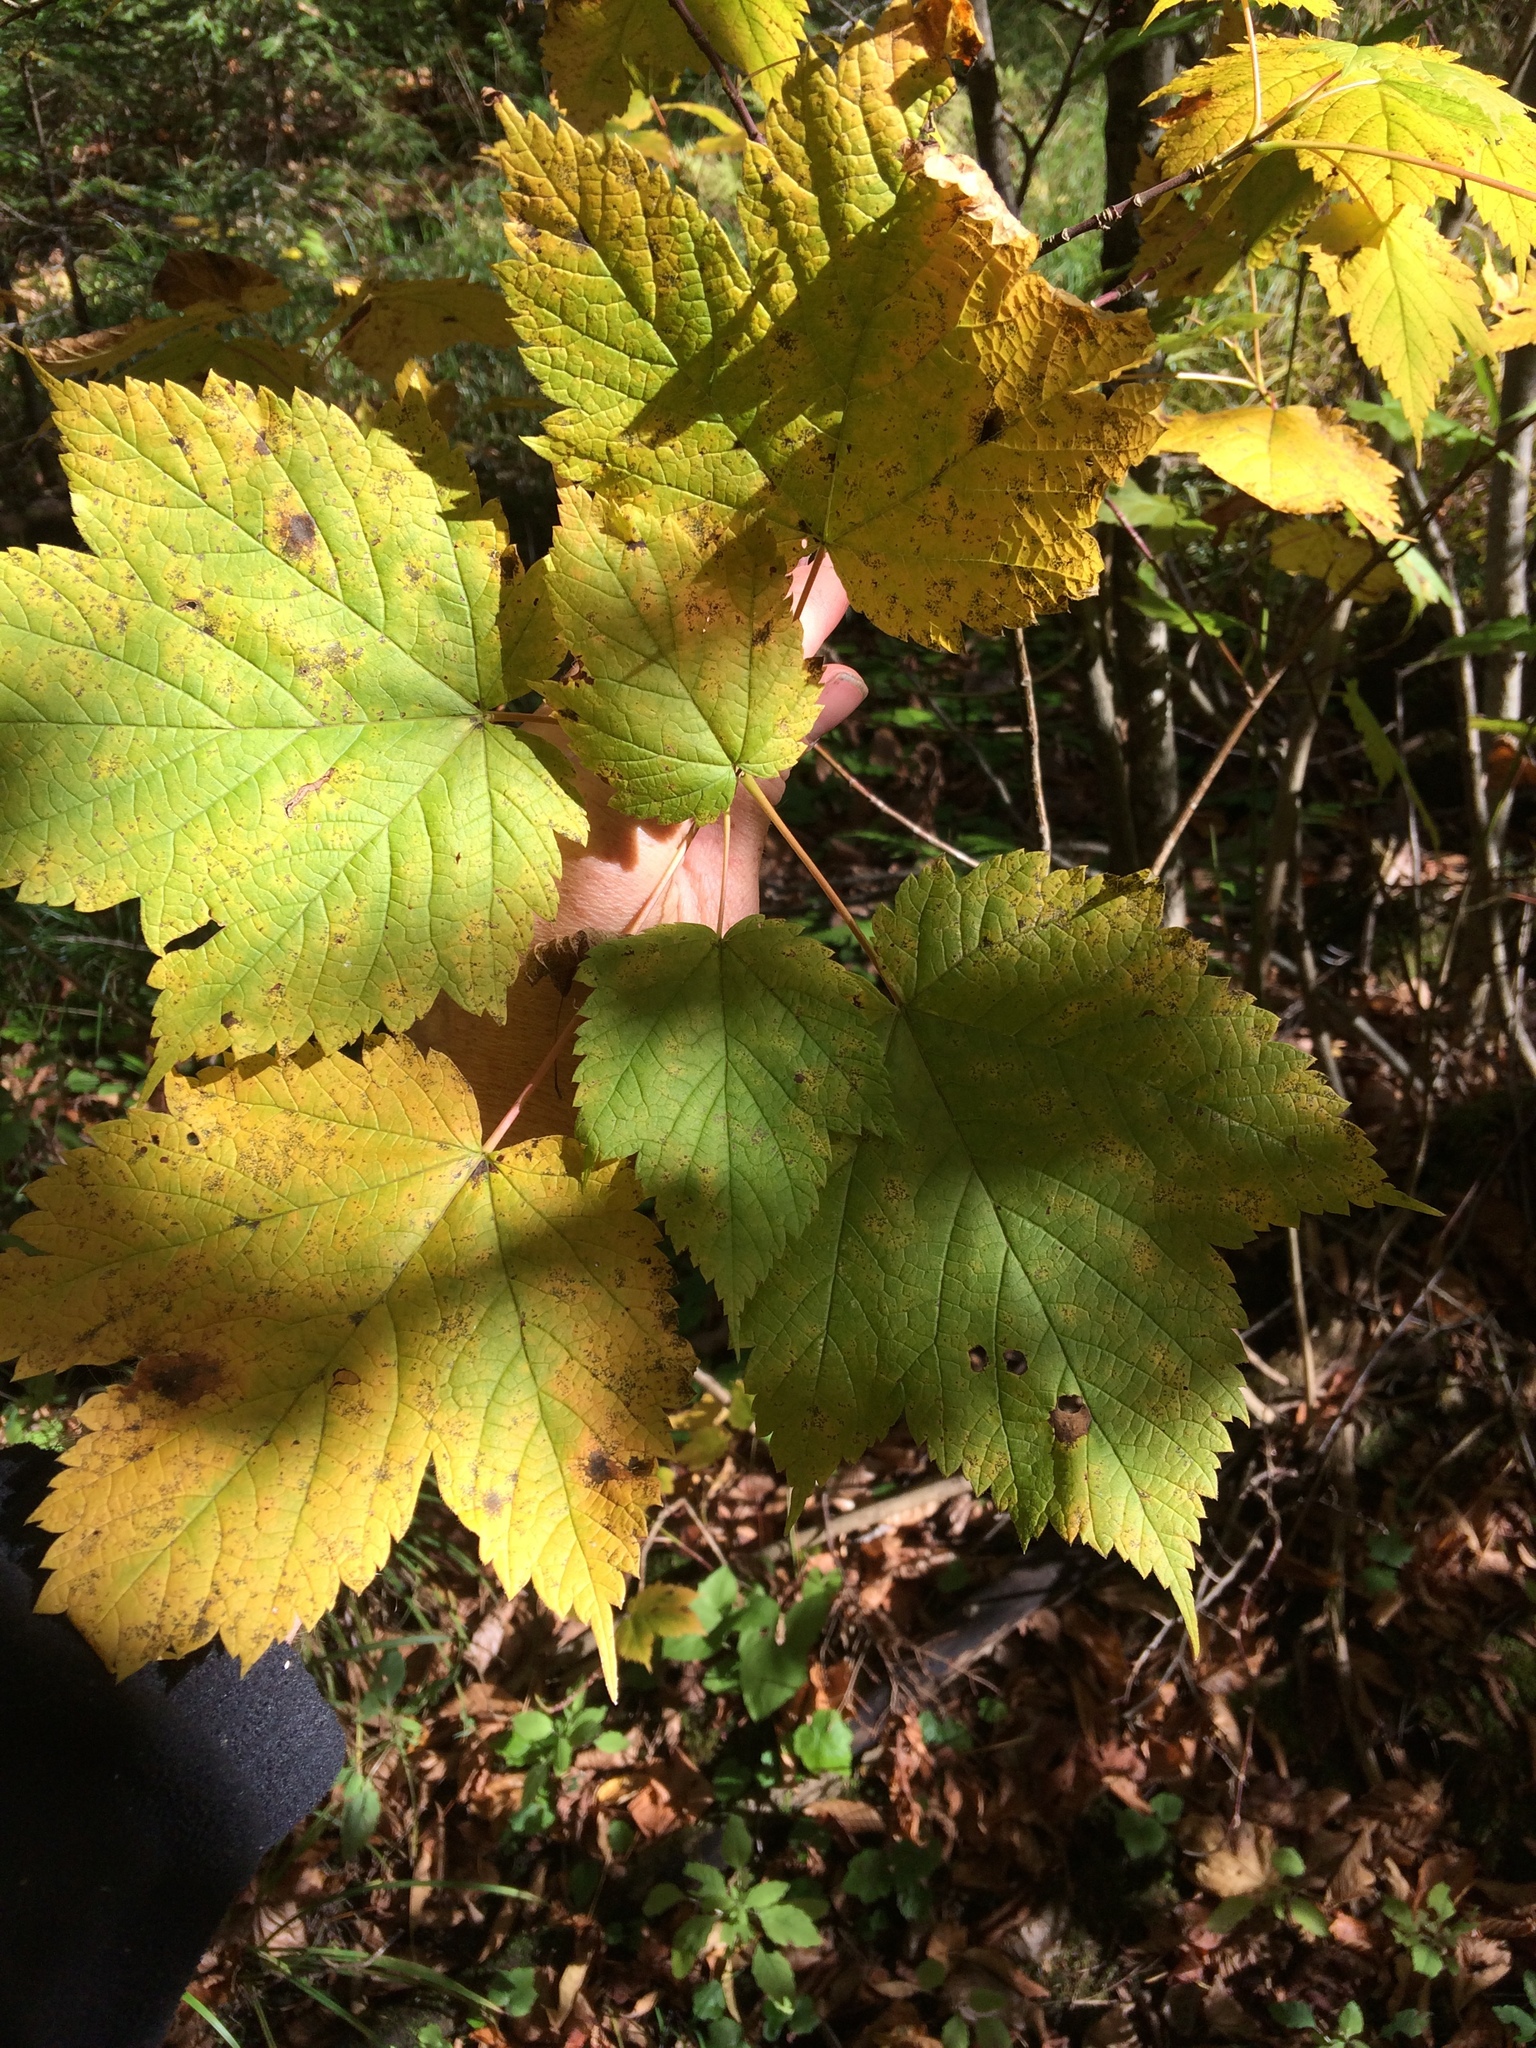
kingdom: Plantae
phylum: Tracheophyta
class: Magnoliopsida
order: Sapindales
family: Sapindaceae
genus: Acer
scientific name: Acer spicatum
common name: Mountain maple
